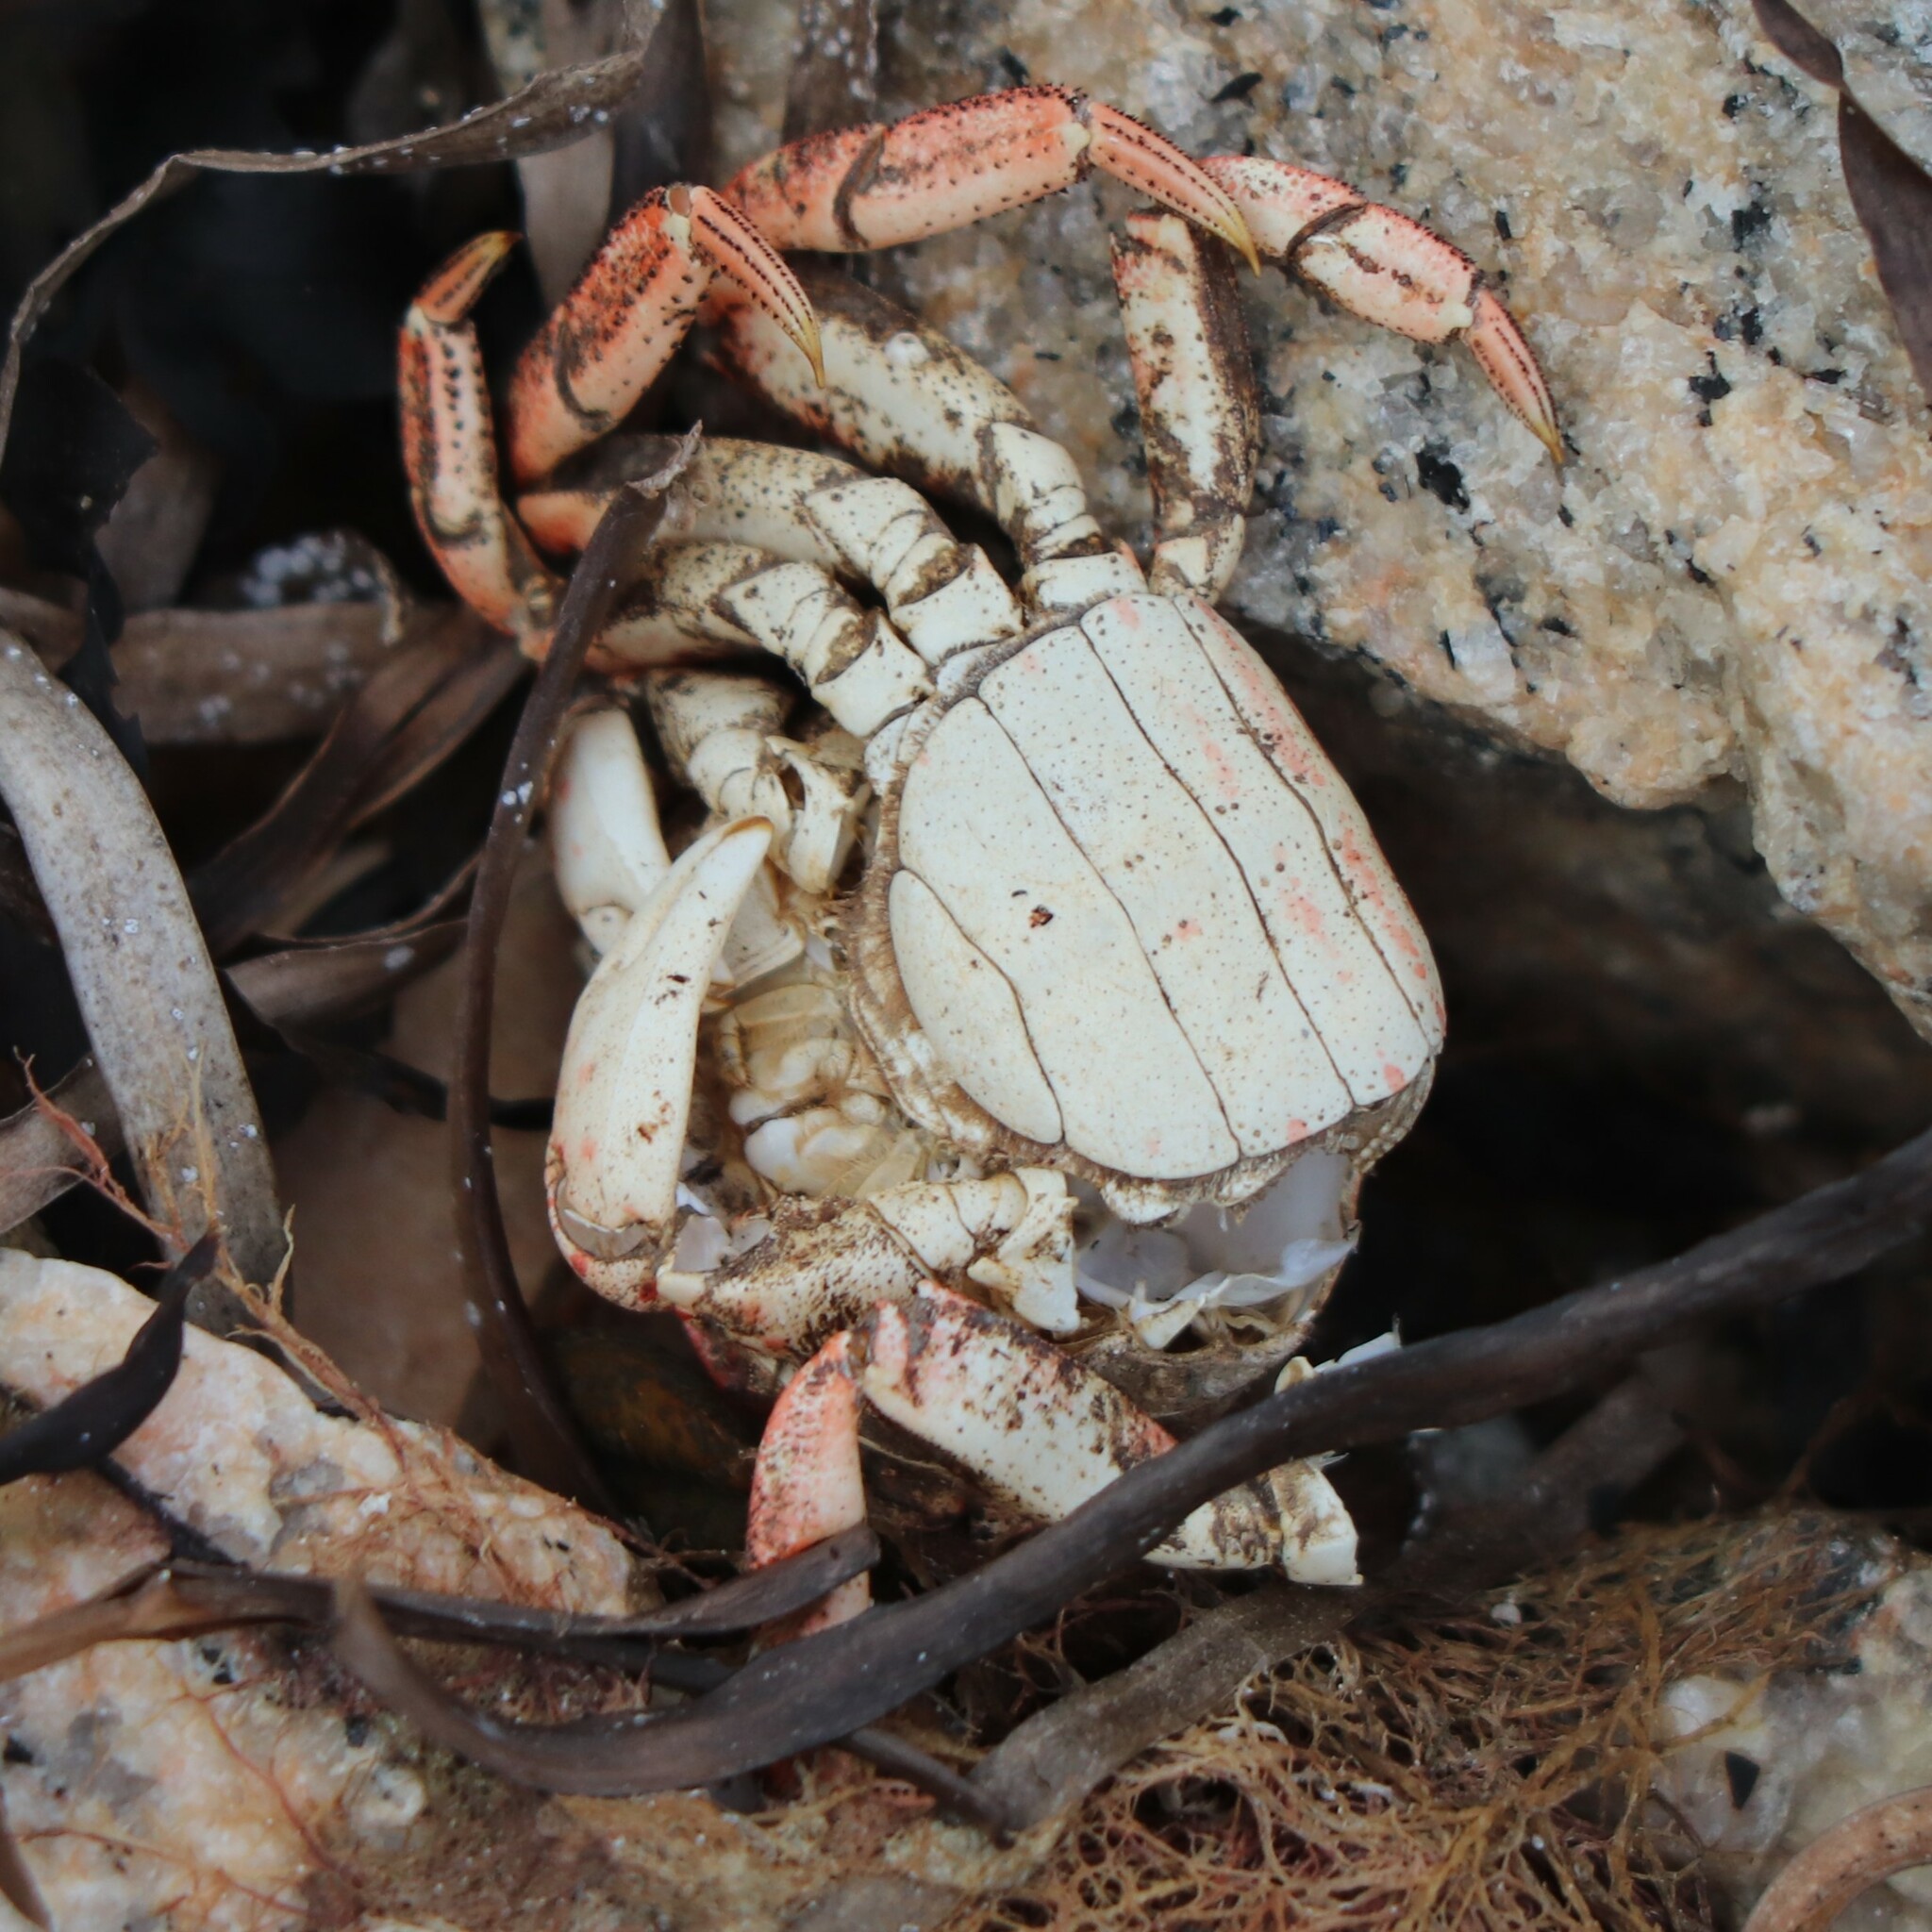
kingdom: Animalia
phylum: Arthropoda
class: Malacostraca
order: Decapoda
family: Varunidae
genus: Hemigrapsus
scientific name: Hemigrapsus sanguineus
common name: Asian shore crab
